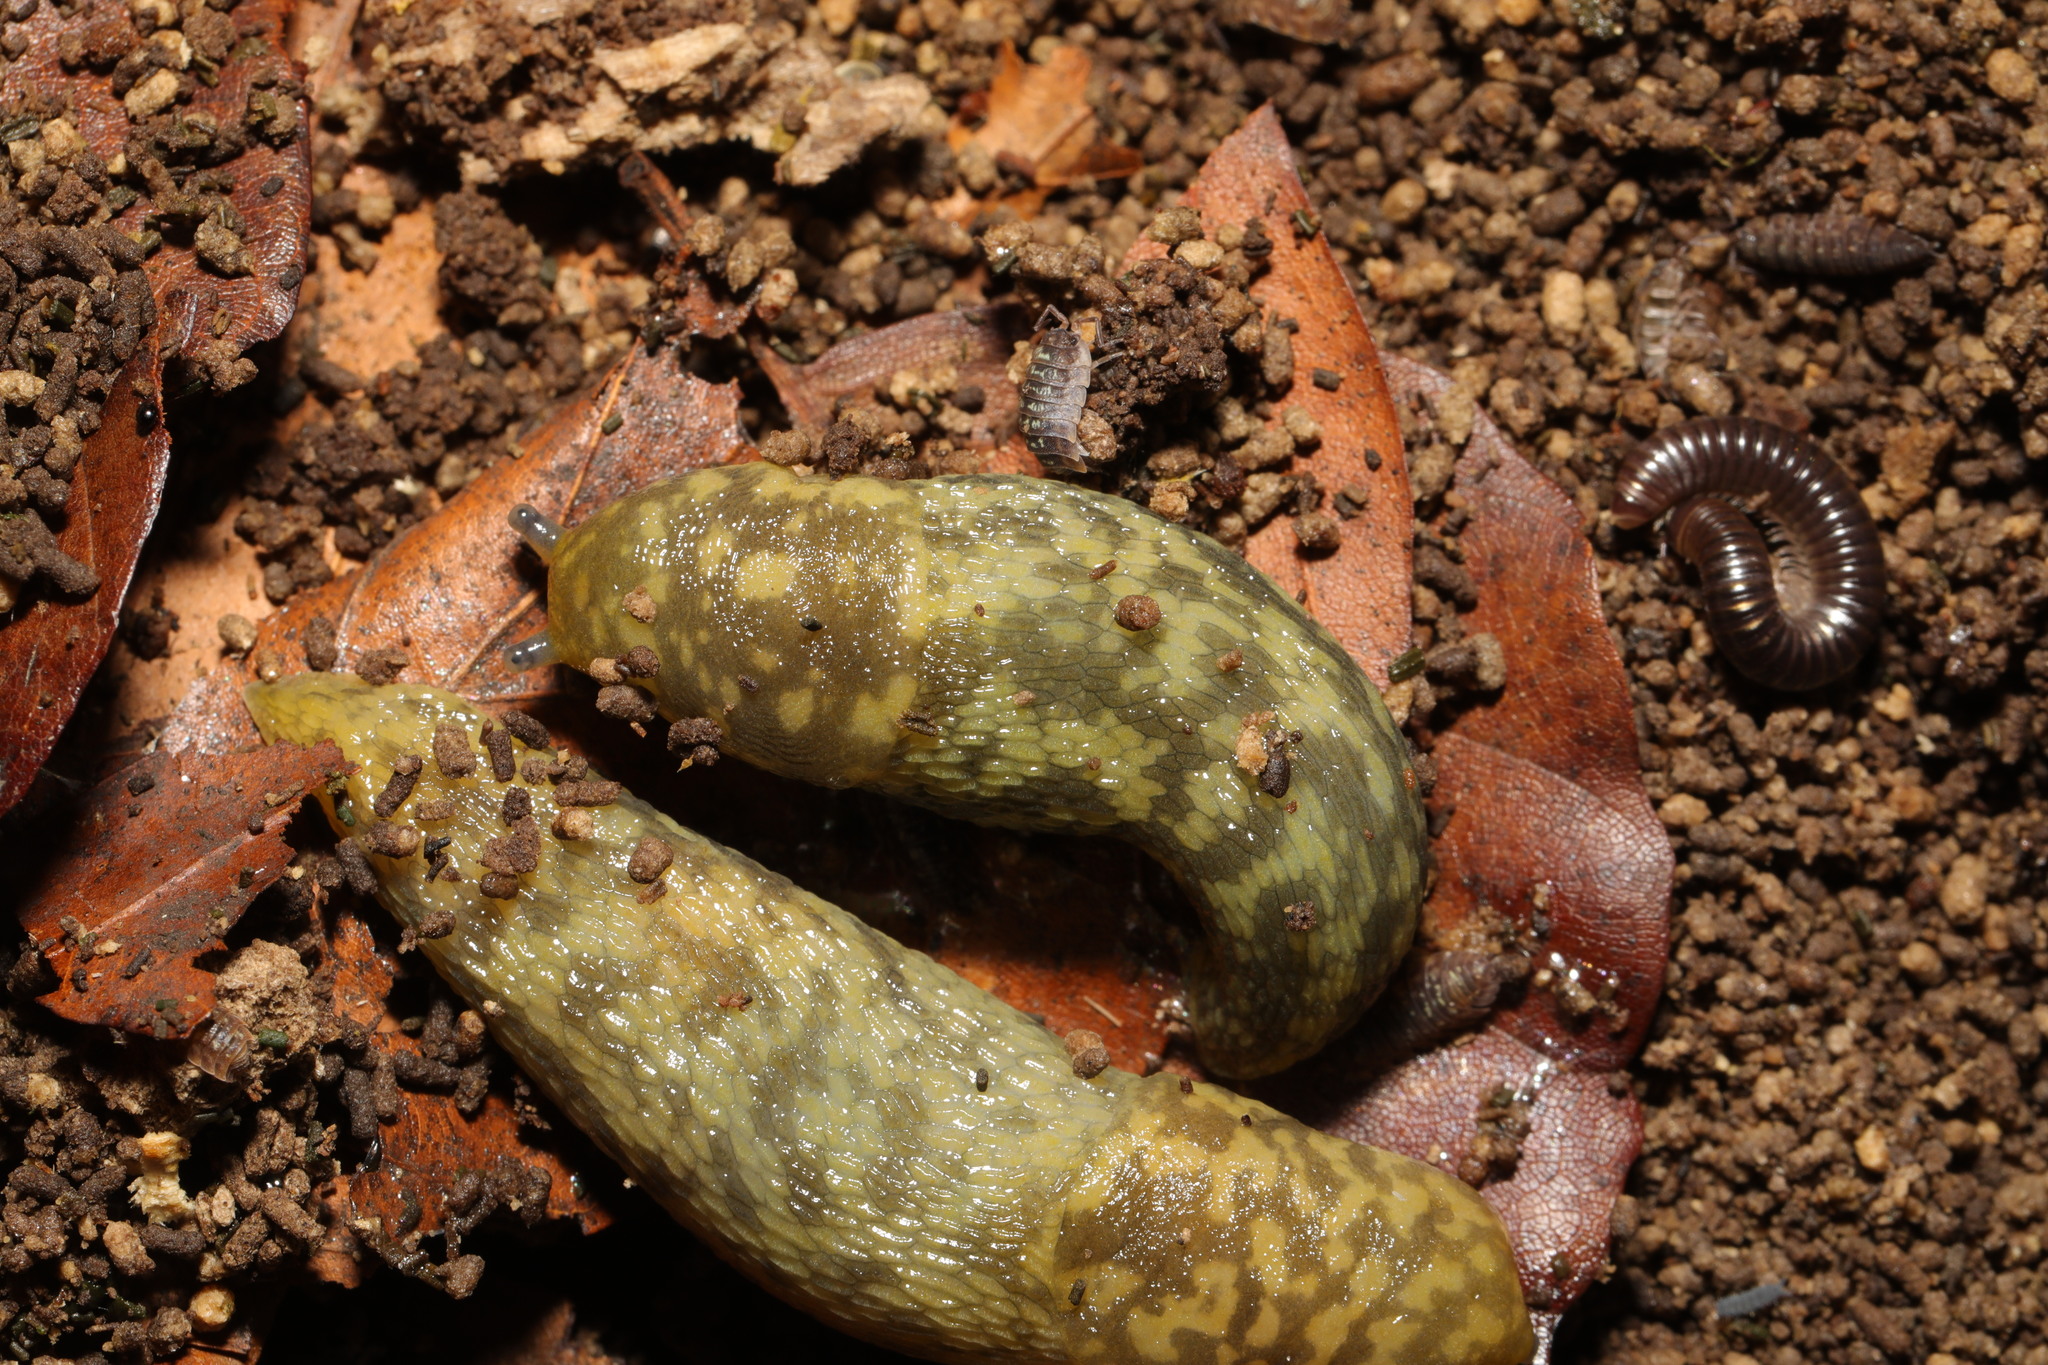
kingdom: Animalia
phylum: Mollusca
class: Gastropoda
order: Stylommatophora
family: Limacidae
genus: Limacus
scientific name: Limacus maculatus
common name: Irish yellow slug
